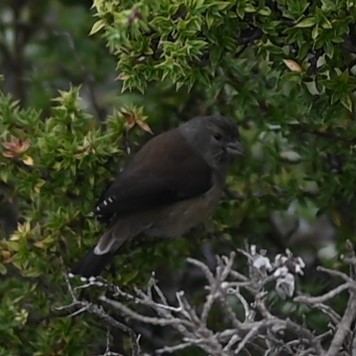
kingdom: Animalia
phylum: Chordata
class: Aves
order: Passeriformes
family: Fringillidae
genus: Crithagra
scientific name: Crithagra totta
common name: Cape siskin
